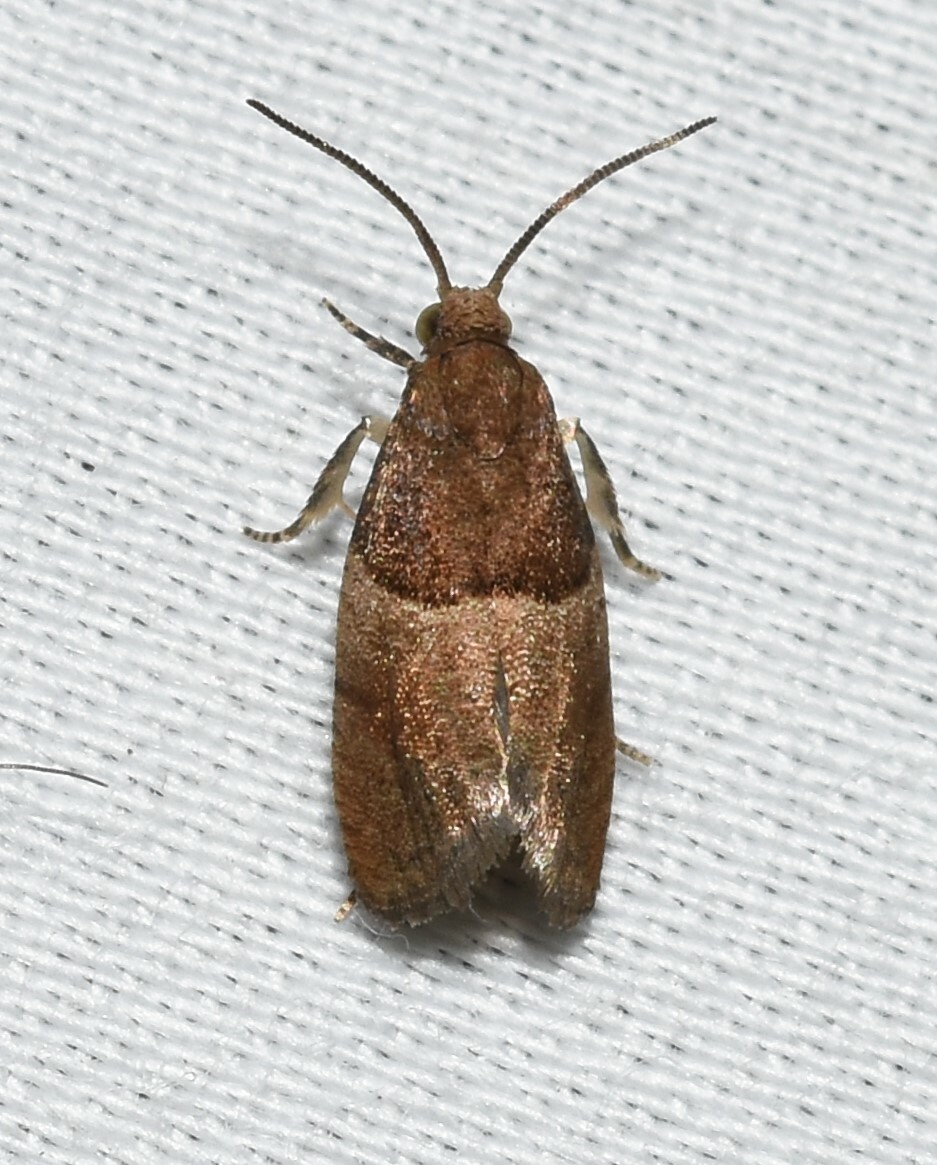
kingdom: Animalia
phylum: Arthropoda
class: Insecta
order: Lepidoptera
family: Tortricidae
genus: Larisa
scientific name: Larisa subsolana
